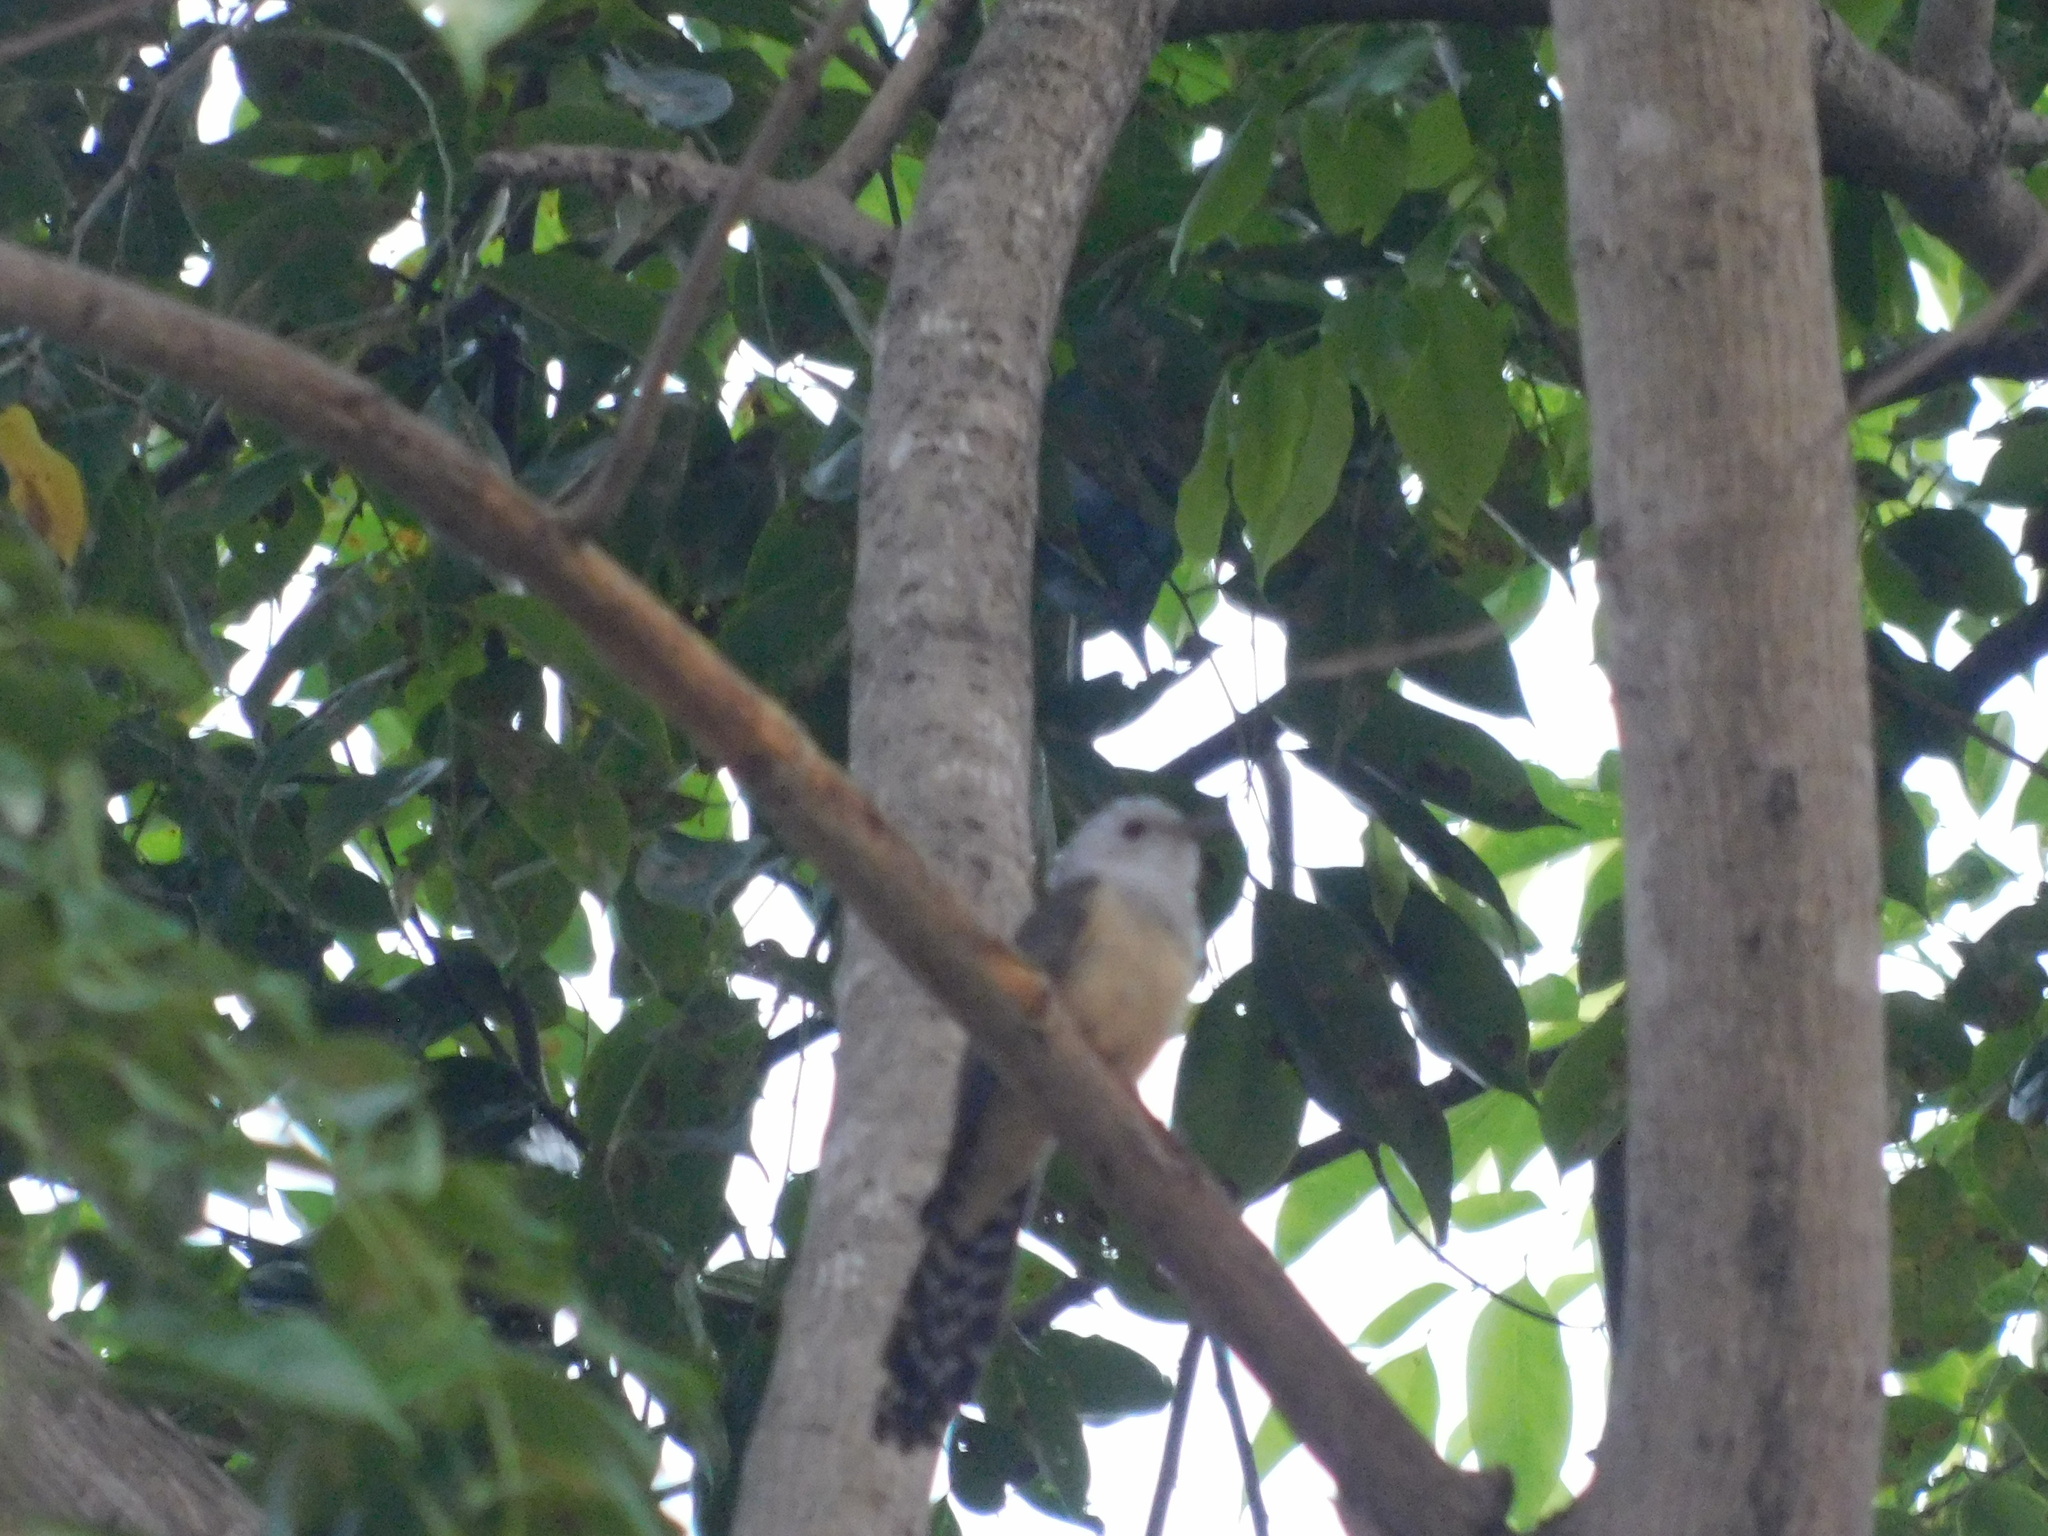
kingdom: Animalia
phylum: Chordata
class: Aves
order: Cuculiformes
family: Cuculidae
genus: Cacomantis
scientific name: Cacomantis merulinus
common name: Plaintive cuckoo
